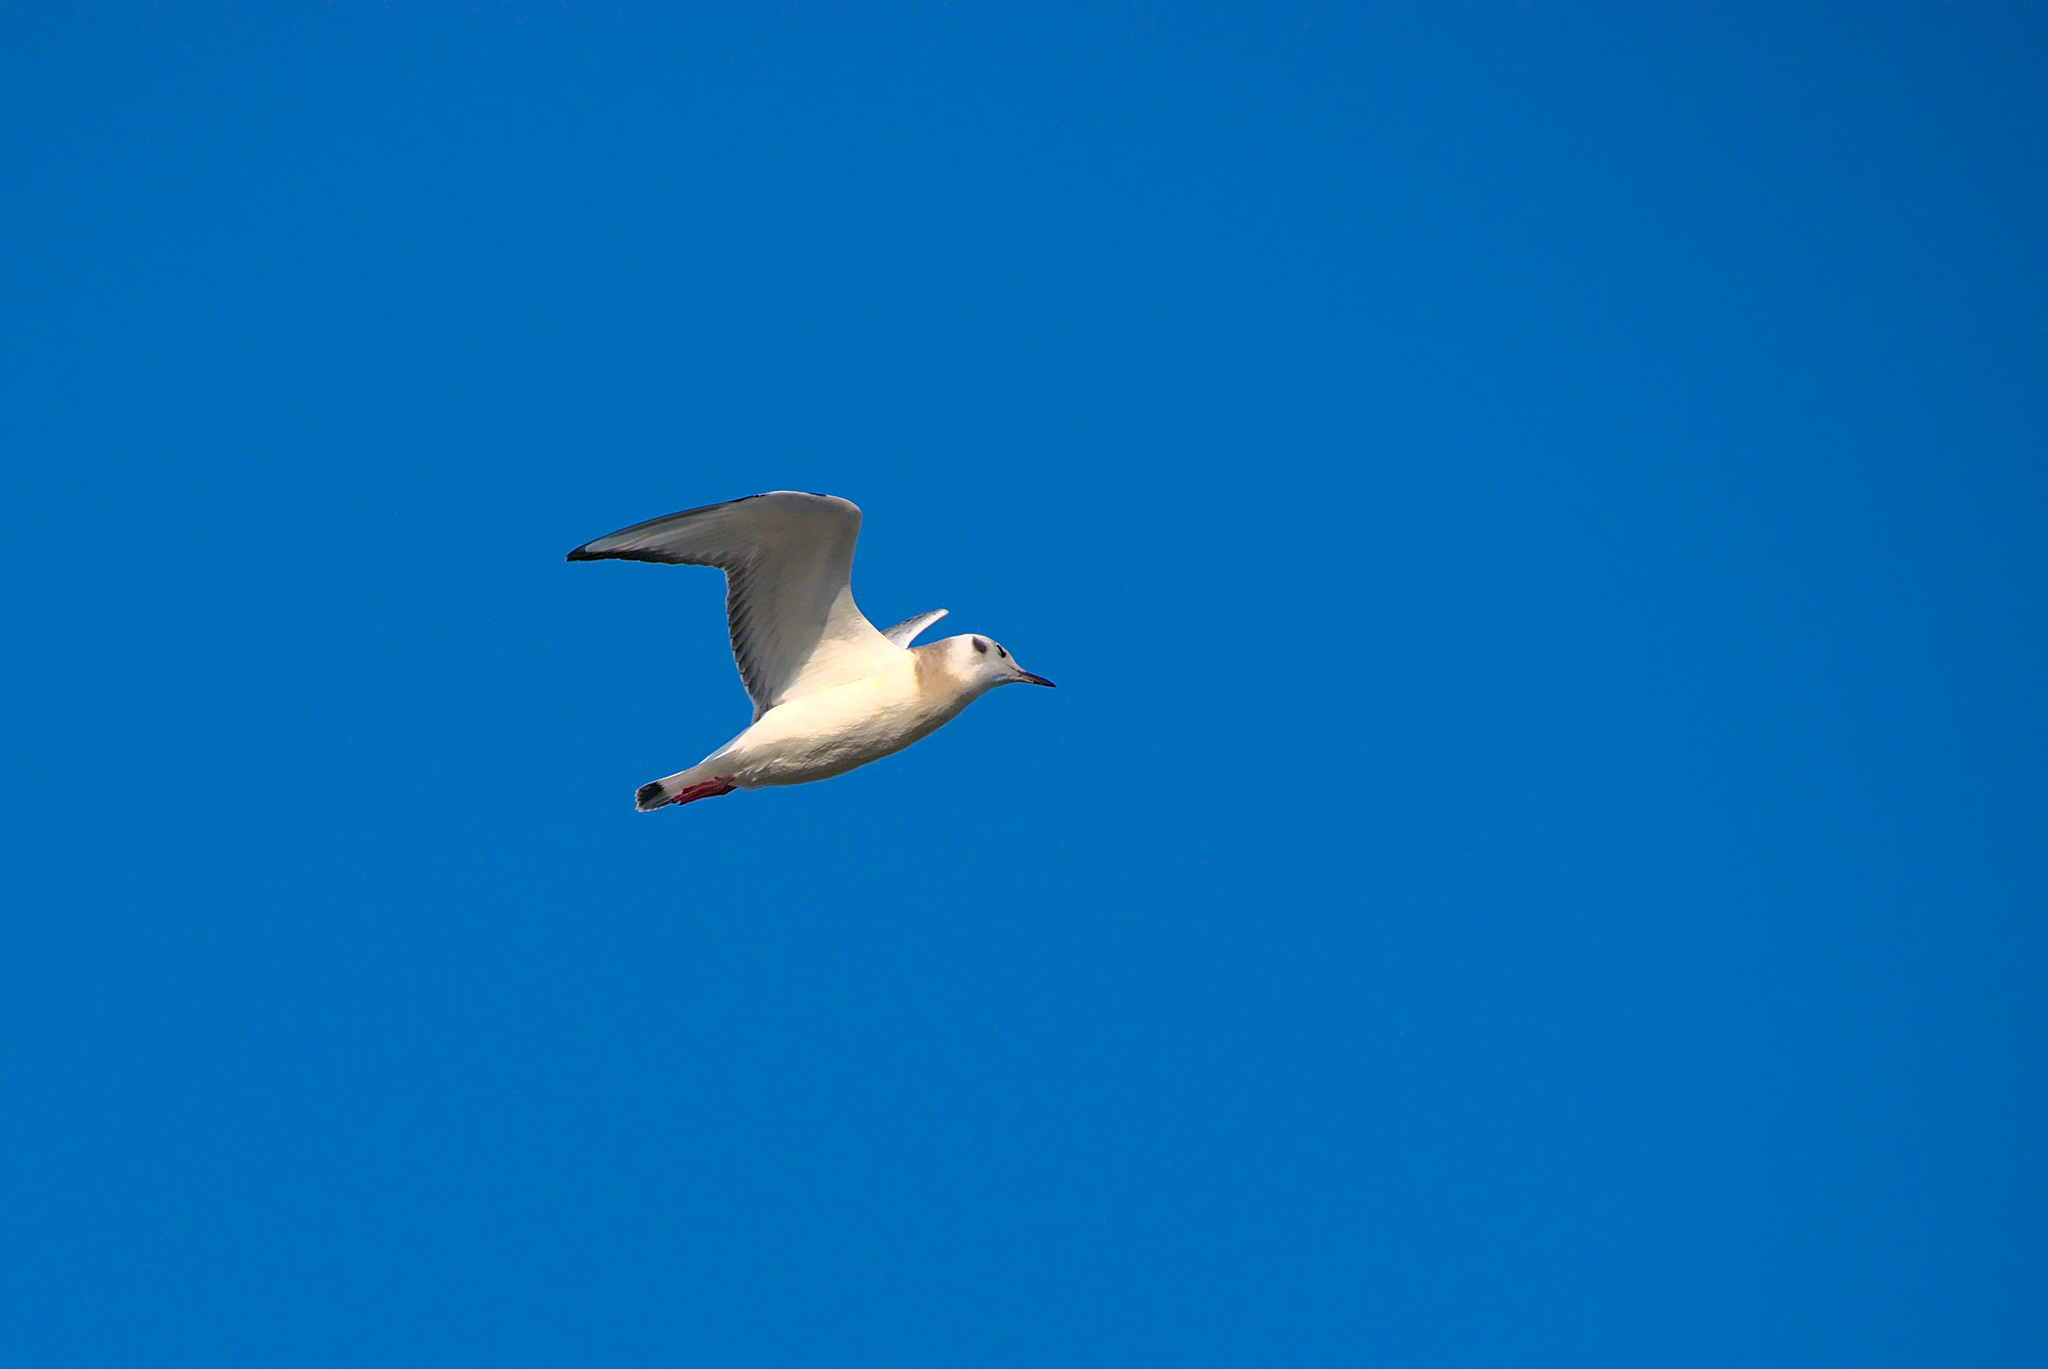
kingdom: Animalia
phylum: Chordata
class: Aves
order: Charadriiformes
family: Laridae
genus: Chroicocephalus
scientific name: Chroicocephalus philadelphia
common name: Bonaparte's gull
